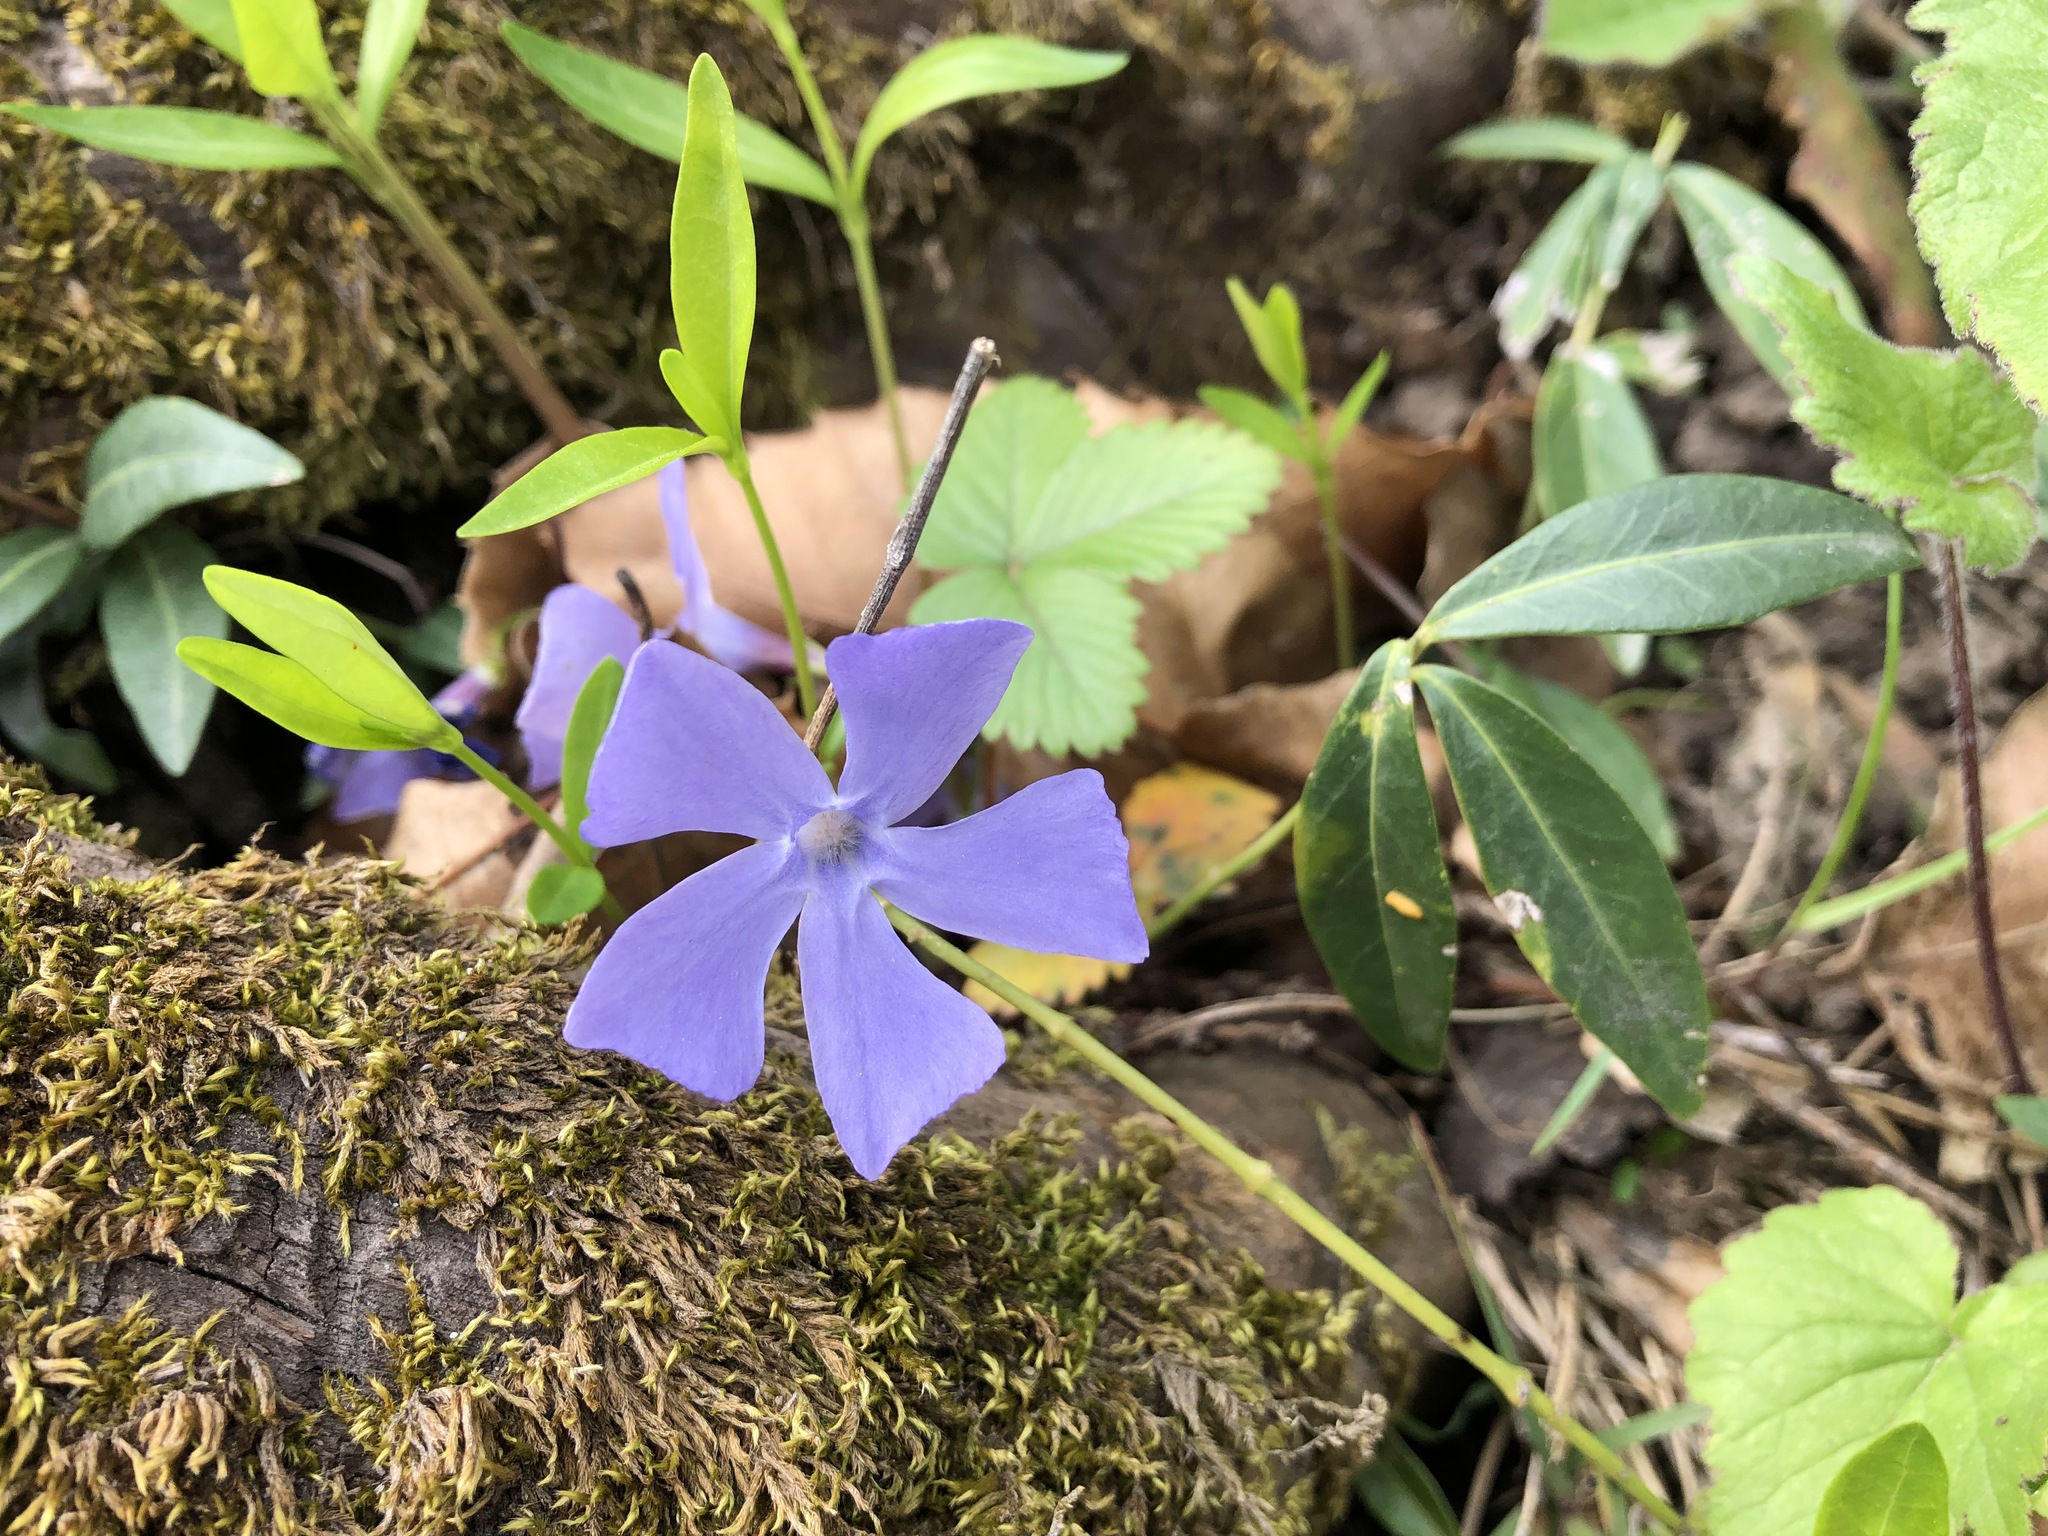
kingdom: Plantae
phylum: Tracheophyta
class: Magnoliopsida
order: Gentianales
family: Apocynaceae
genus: Vinca
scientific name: Vinca minor
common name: Lesser periwinkle
